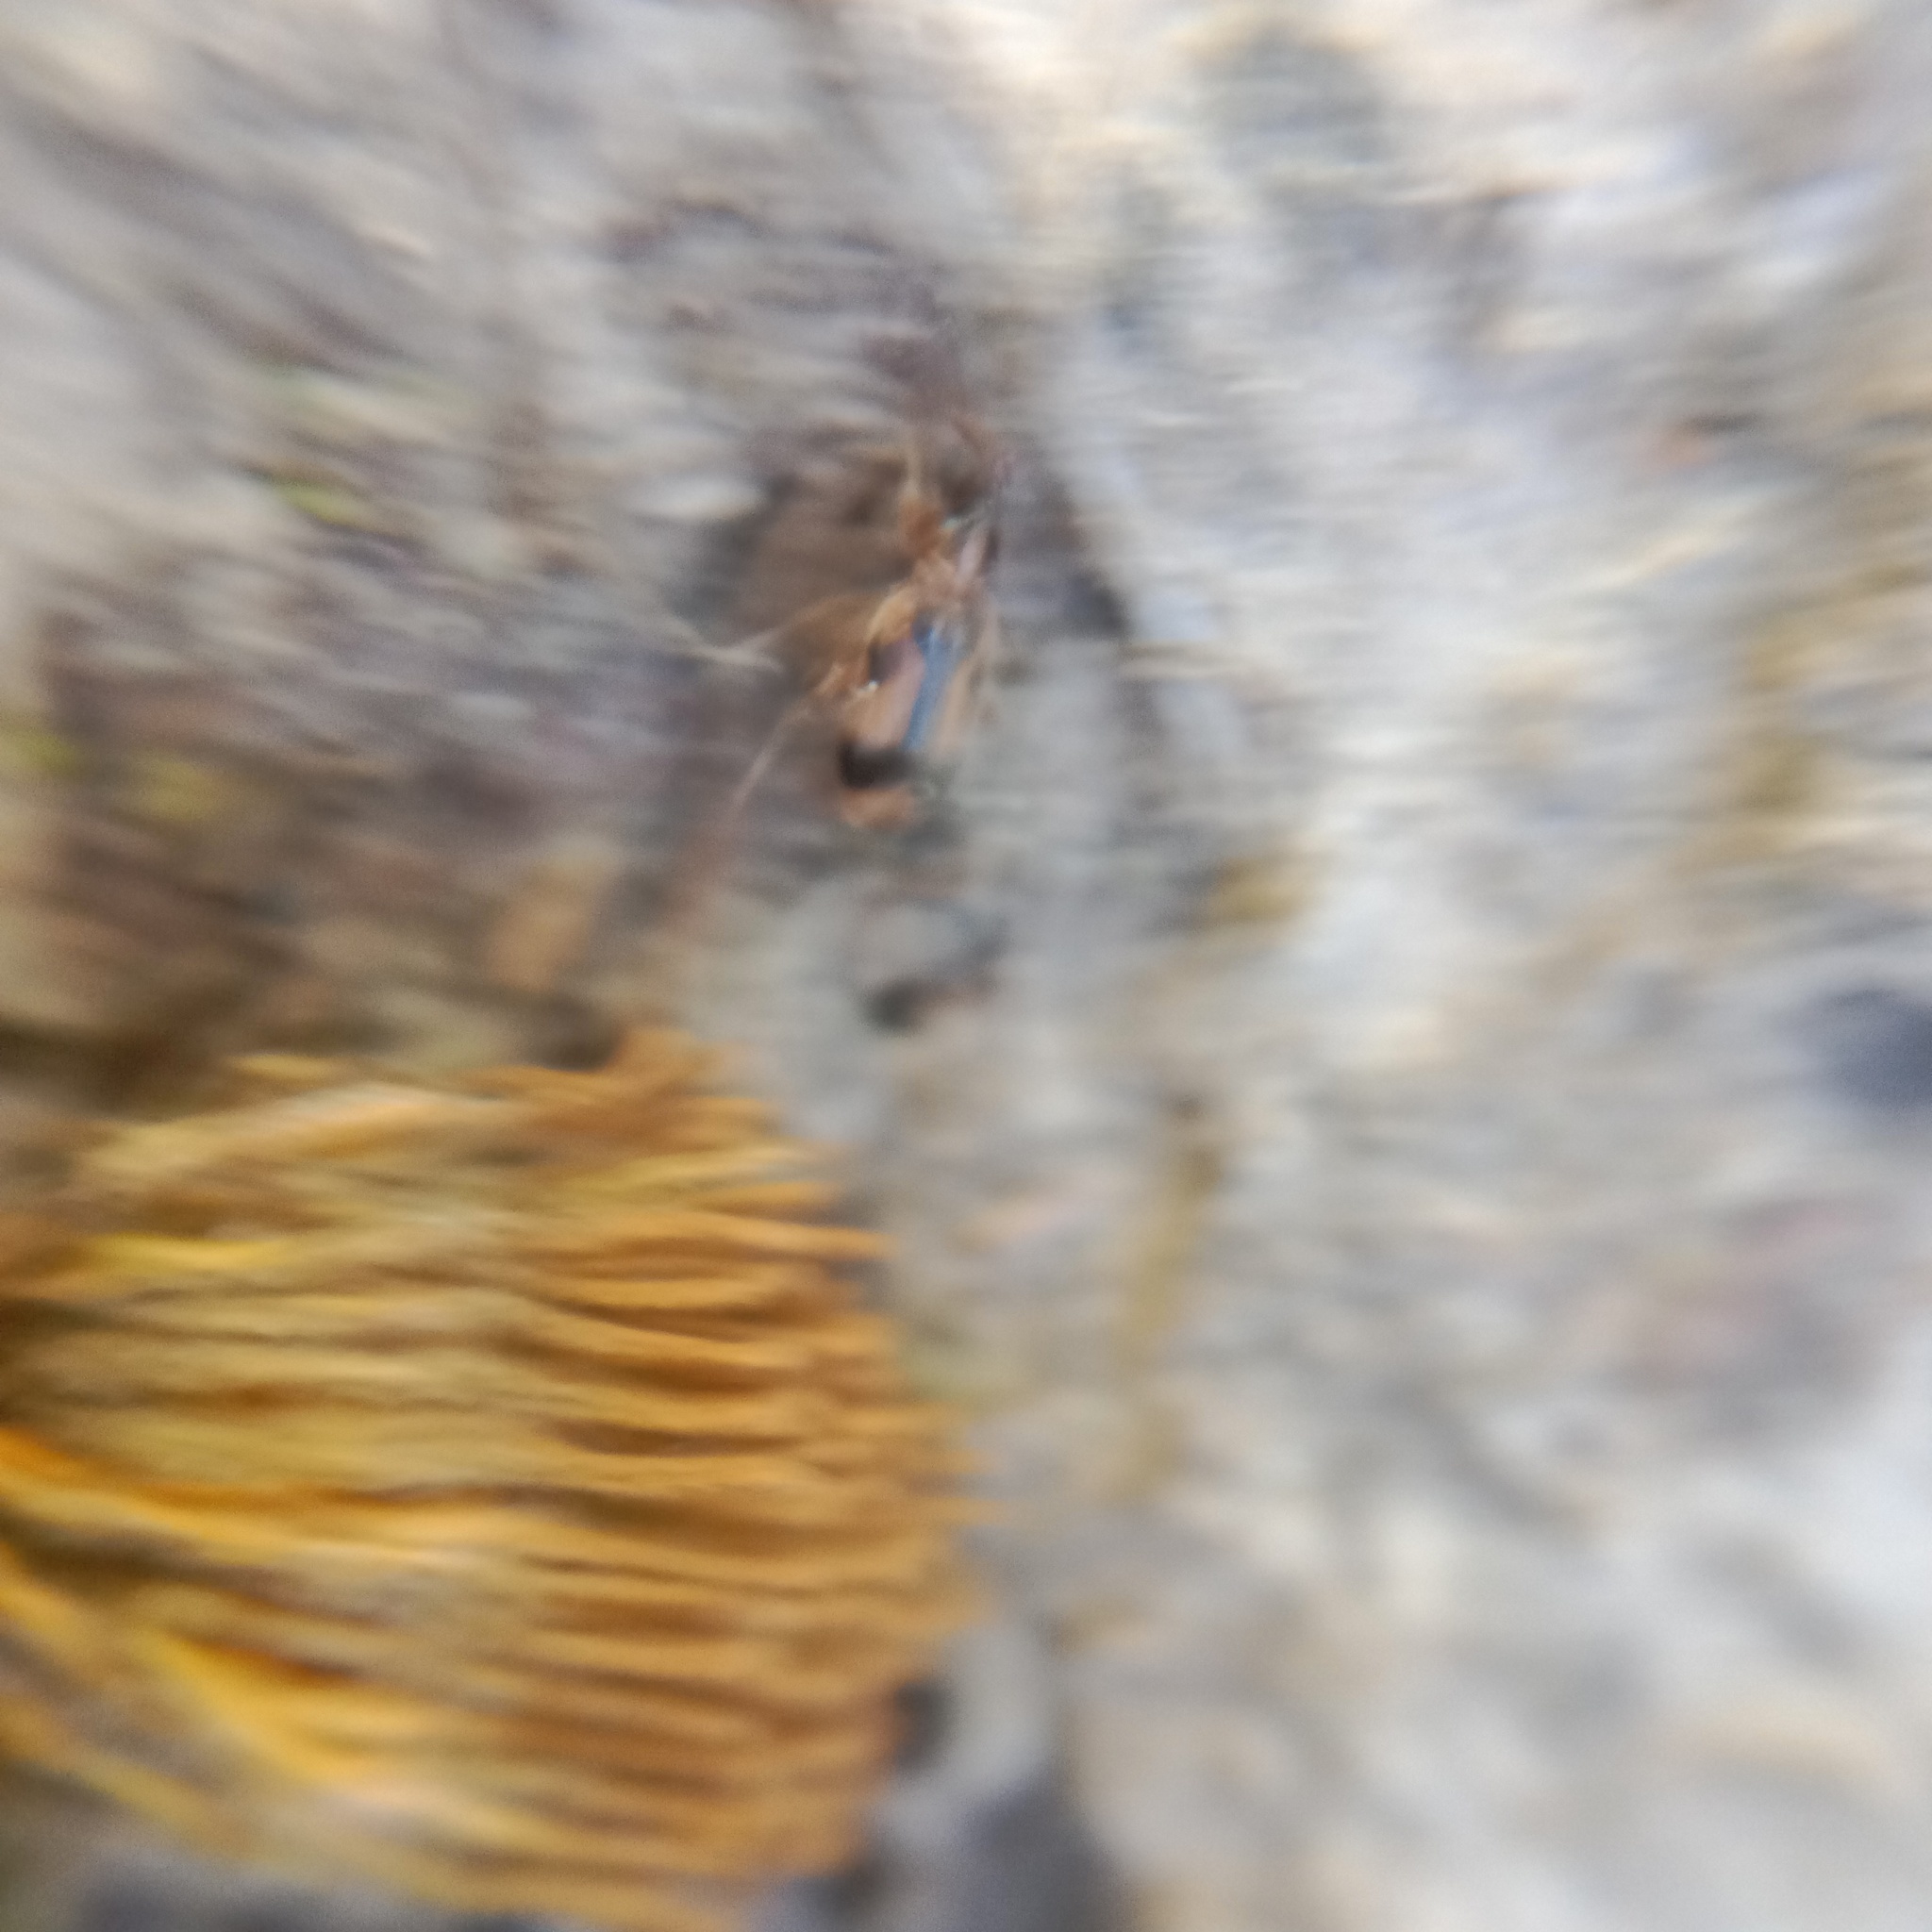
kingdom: Animalia
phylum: Arthropoda
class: Insecta
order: Coleoptera
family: Anthicidae
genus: Notoxus
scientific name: Notoxus monoceros
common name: Monoceros beetle
